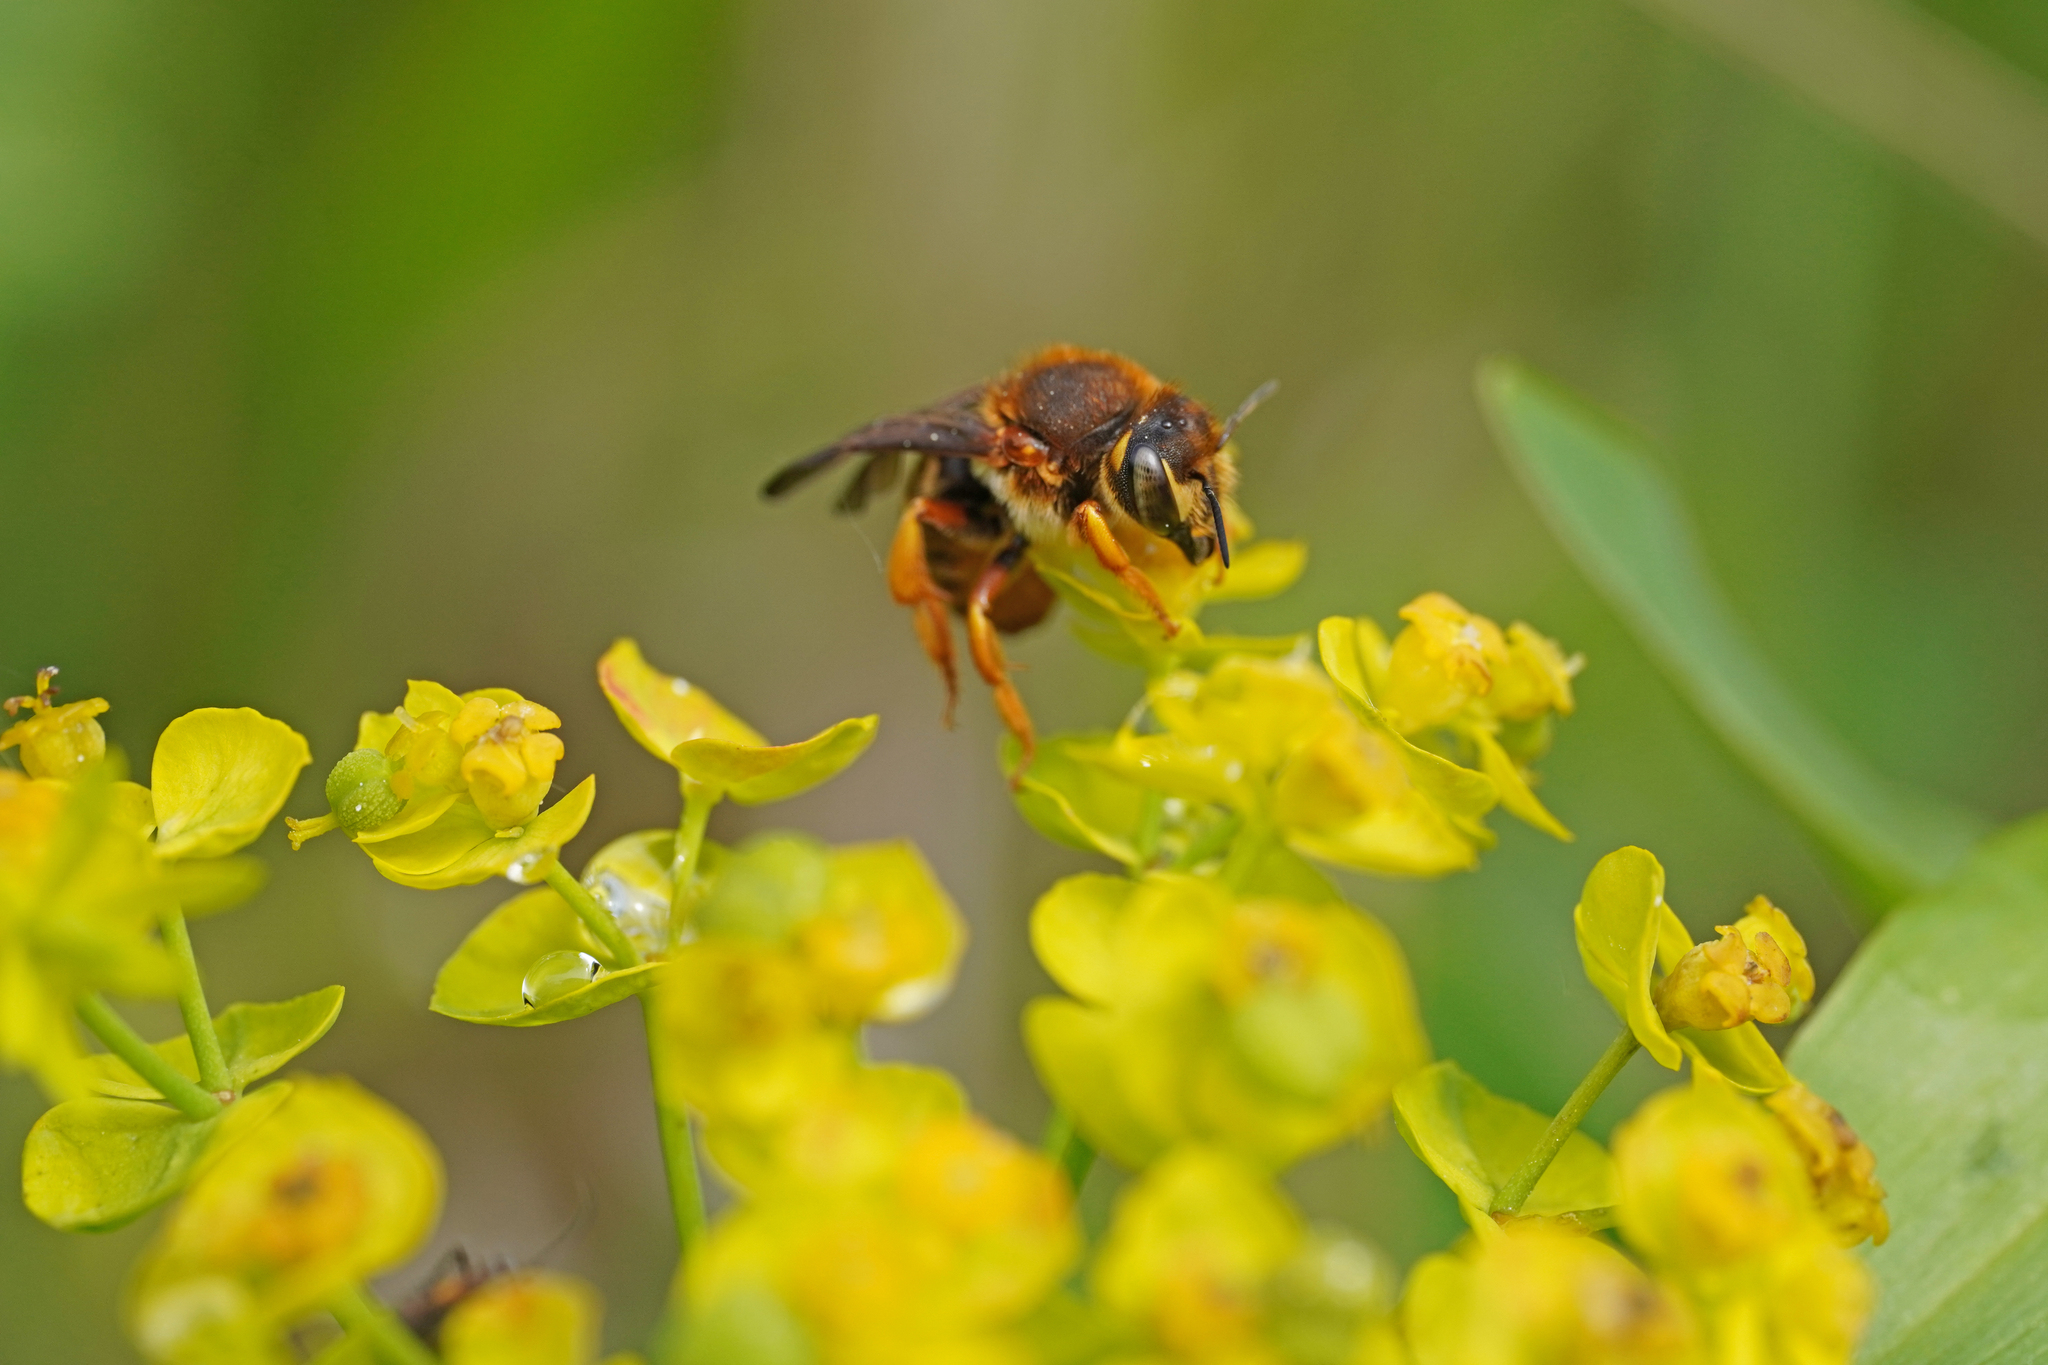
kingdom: Animalia
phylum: Arthropoda
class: Insecta
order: Hymenoptera
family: Megachilidae
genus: Rhodanthidium
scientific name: Rhodanthidium septemdentatum
